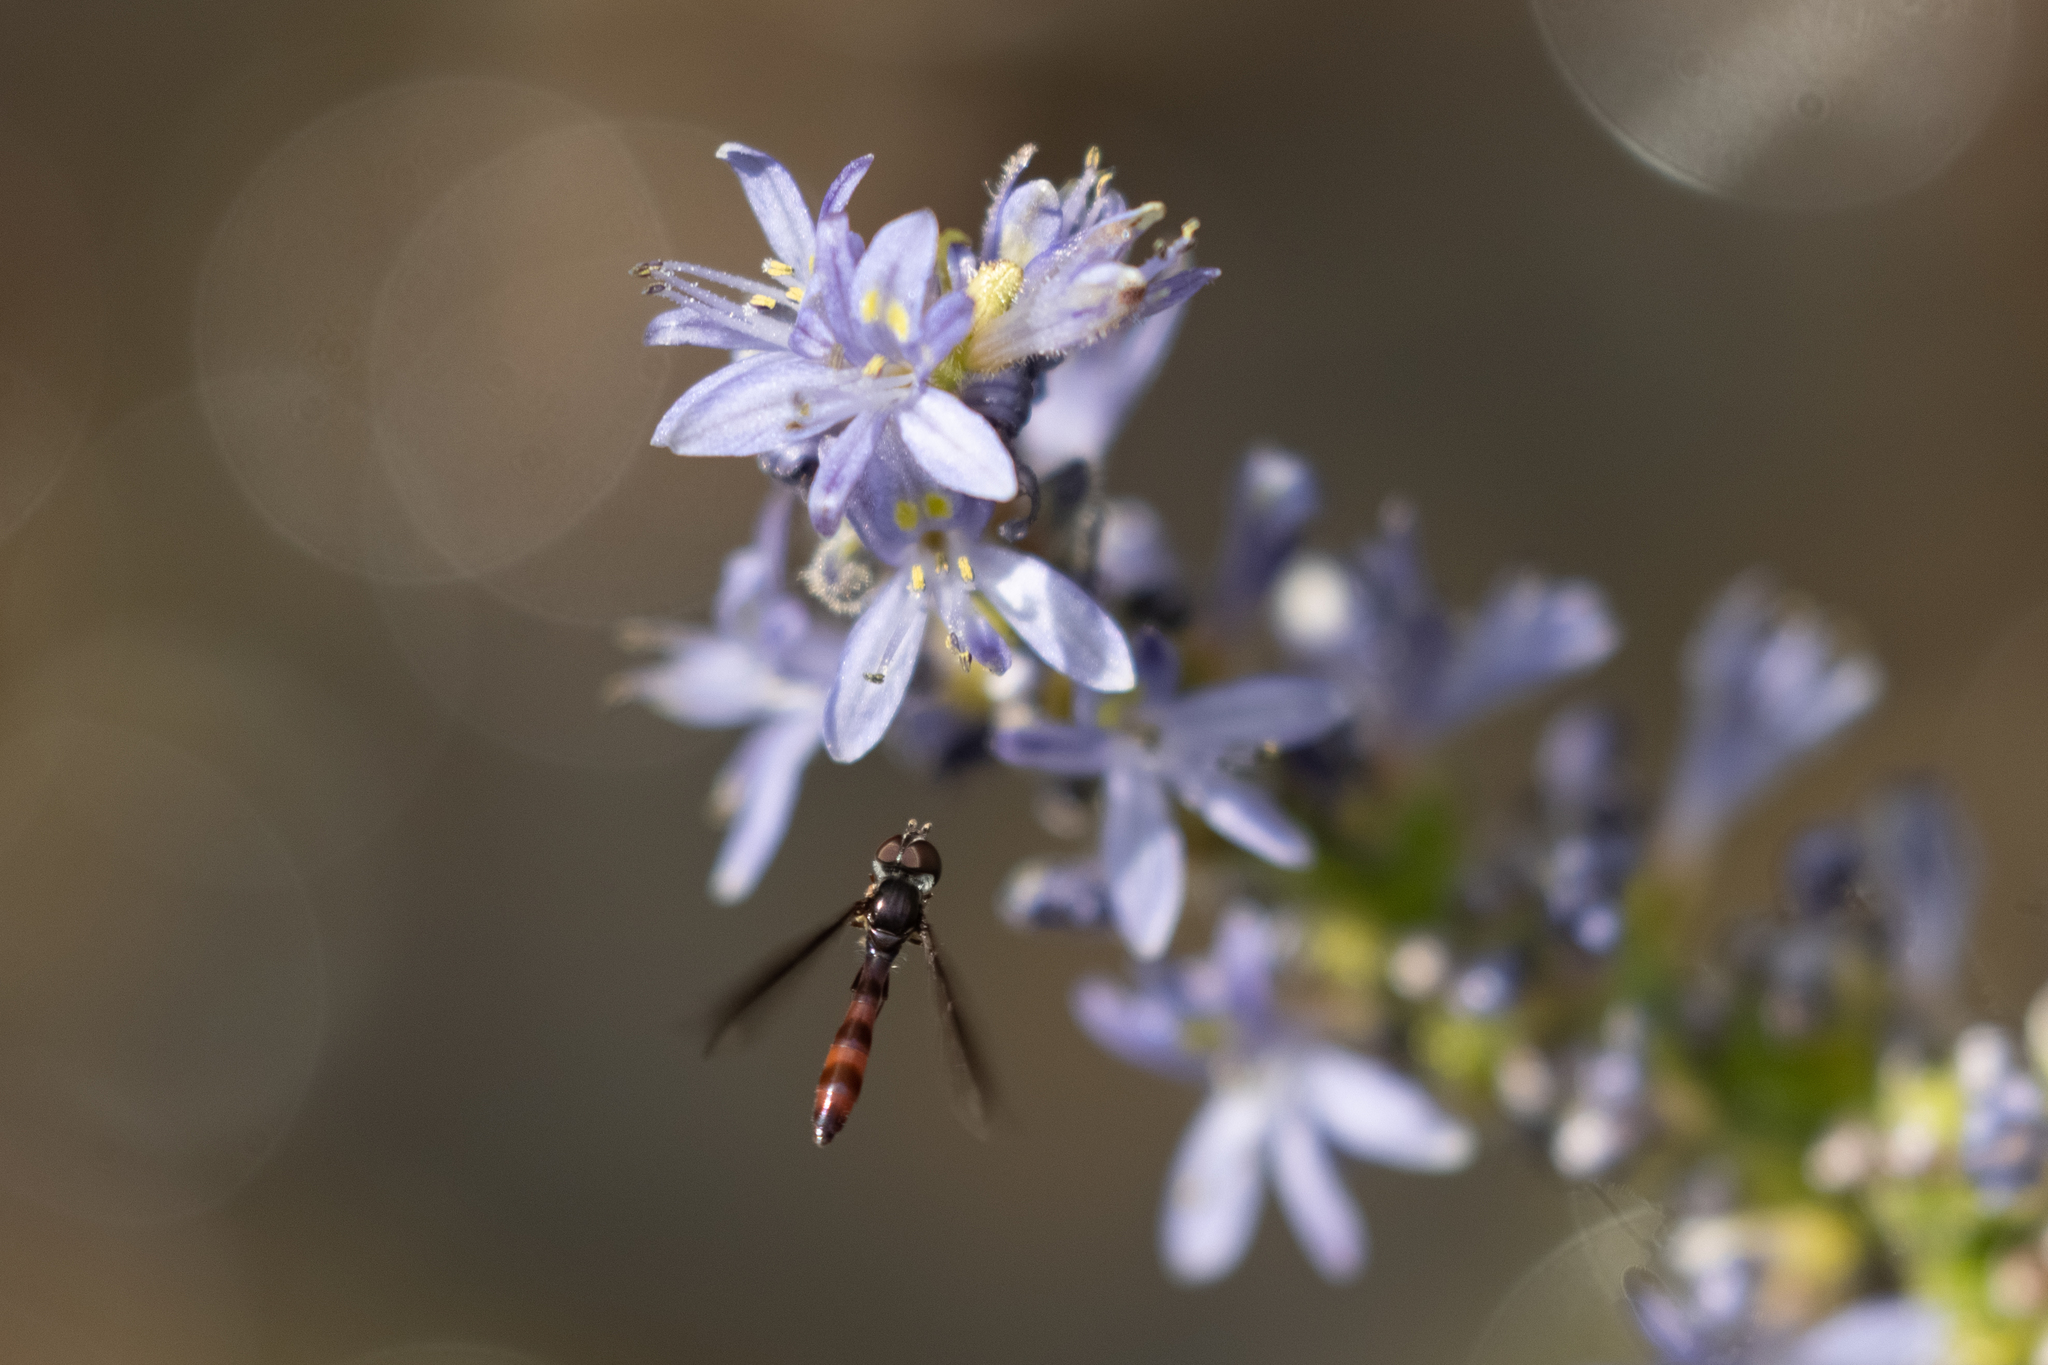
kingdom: Animalia
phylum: Arthropoda
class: Insecta
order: Diptera
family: Syrphidae
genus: Ocyptamus
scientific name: Ocyptamus fuscipennis
